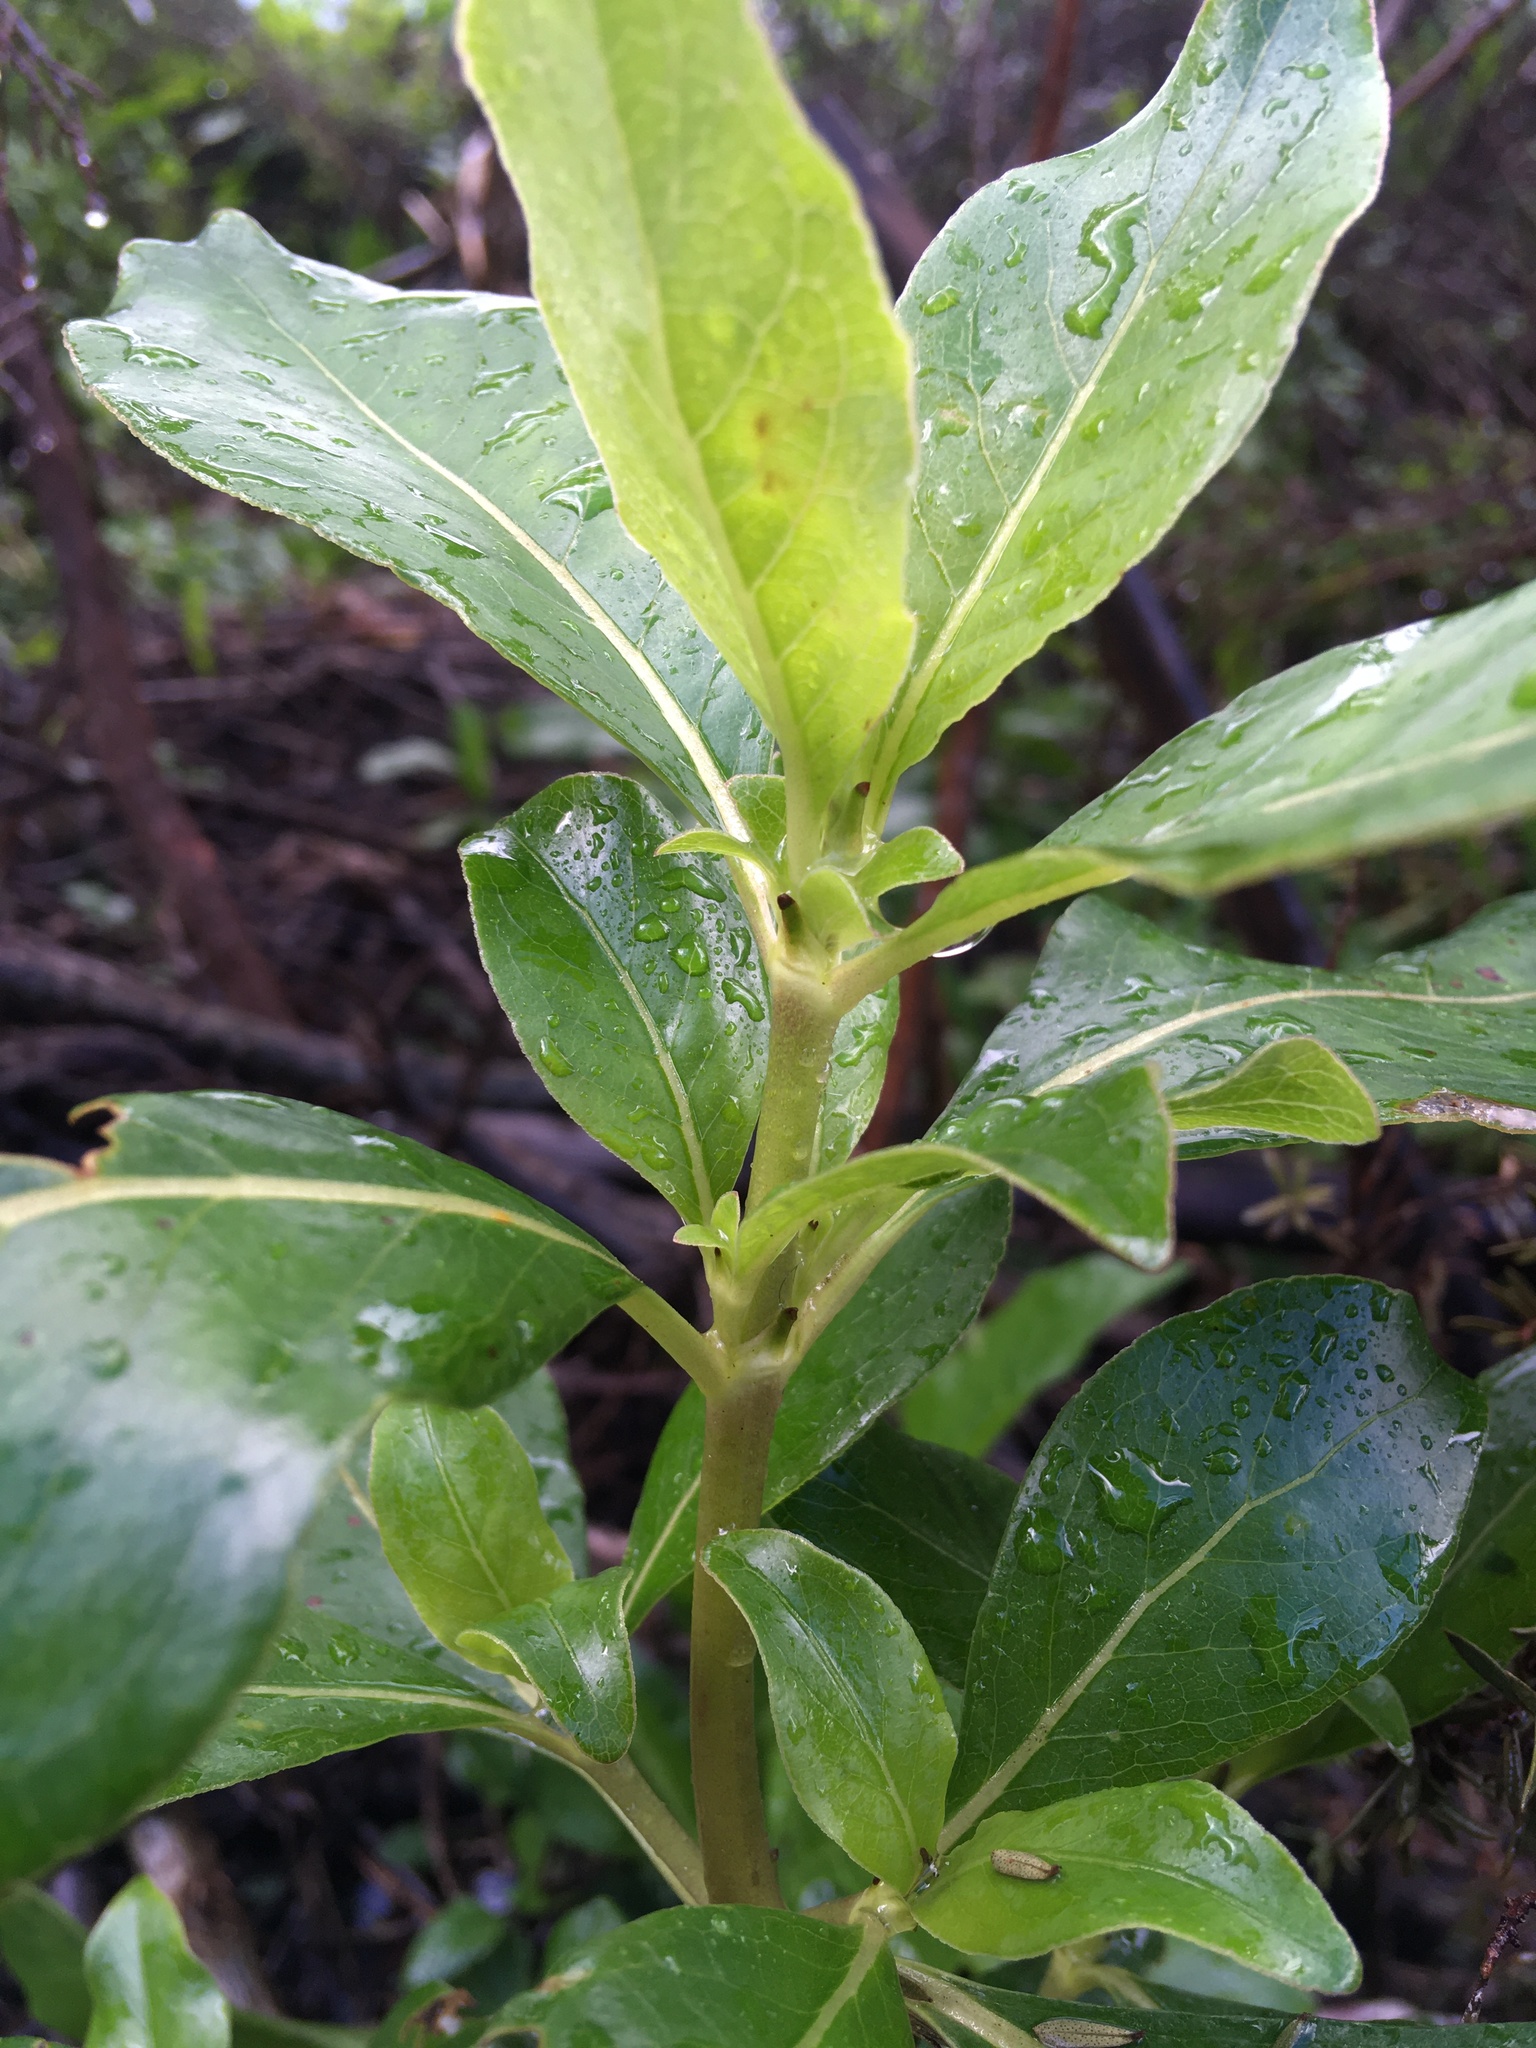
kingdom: Plantae
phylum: Tracheophyta
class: Magnoliopsida
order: Gentianales
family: Rubiaceae
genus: Coprosma
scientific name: Coprosma robusta
